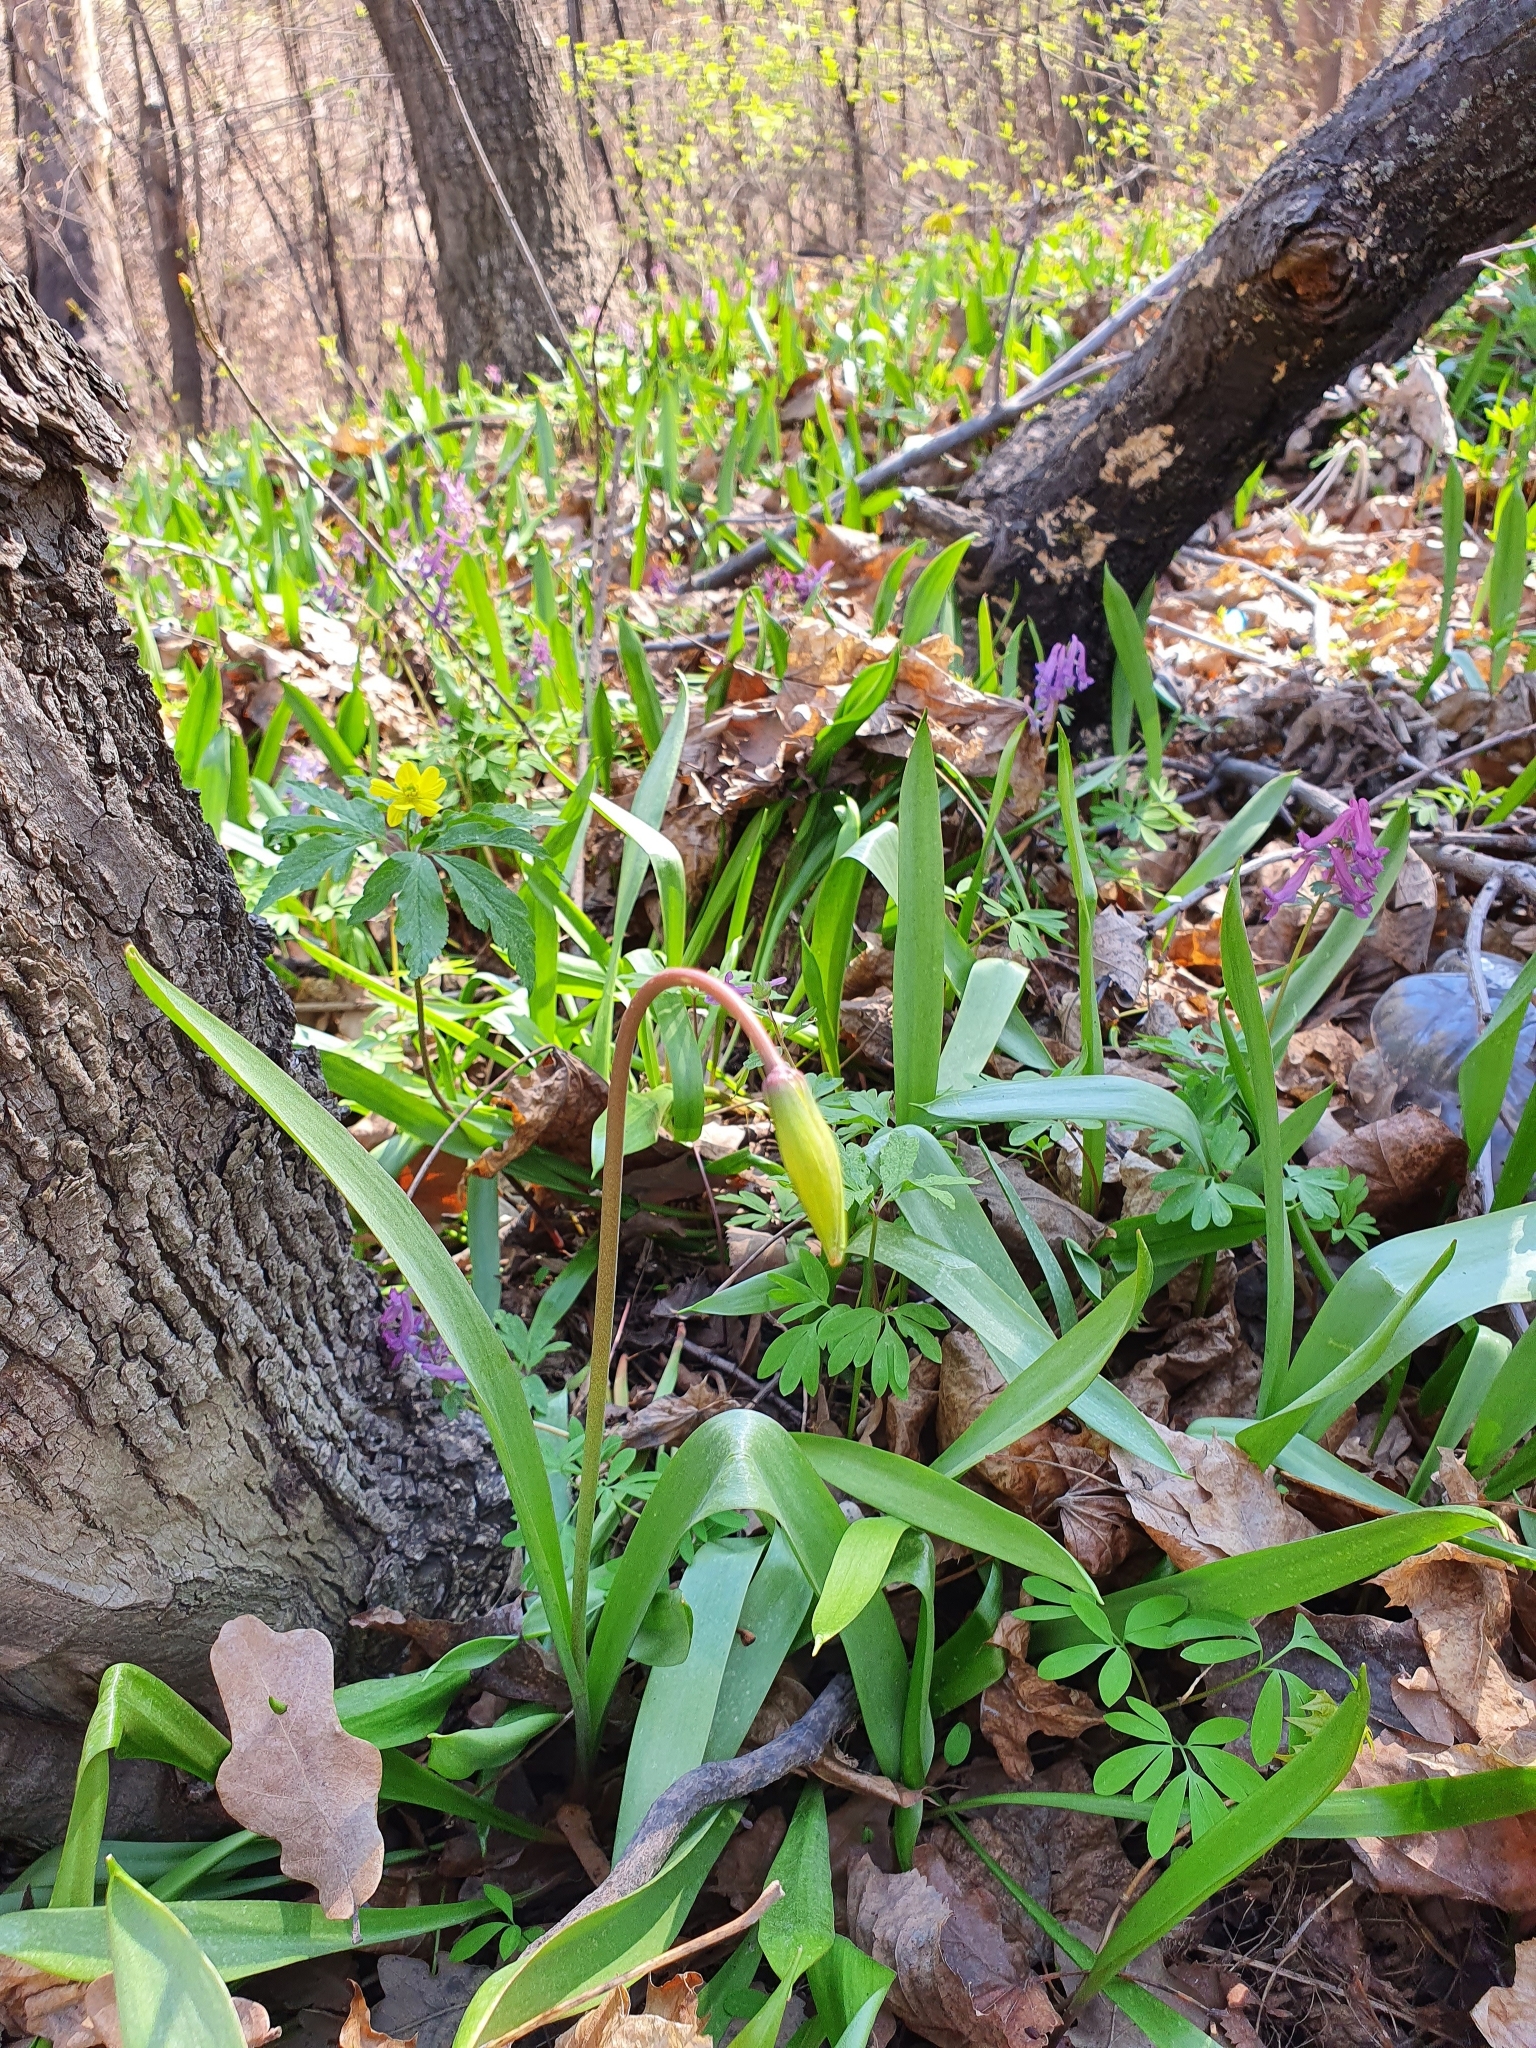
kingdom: Plantae
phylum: Tracheophyta
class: Liliopsida
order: Liliales
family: Liliaceae
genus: Tulipa
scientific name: Tulipa sylvestris
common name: Wild tulip
